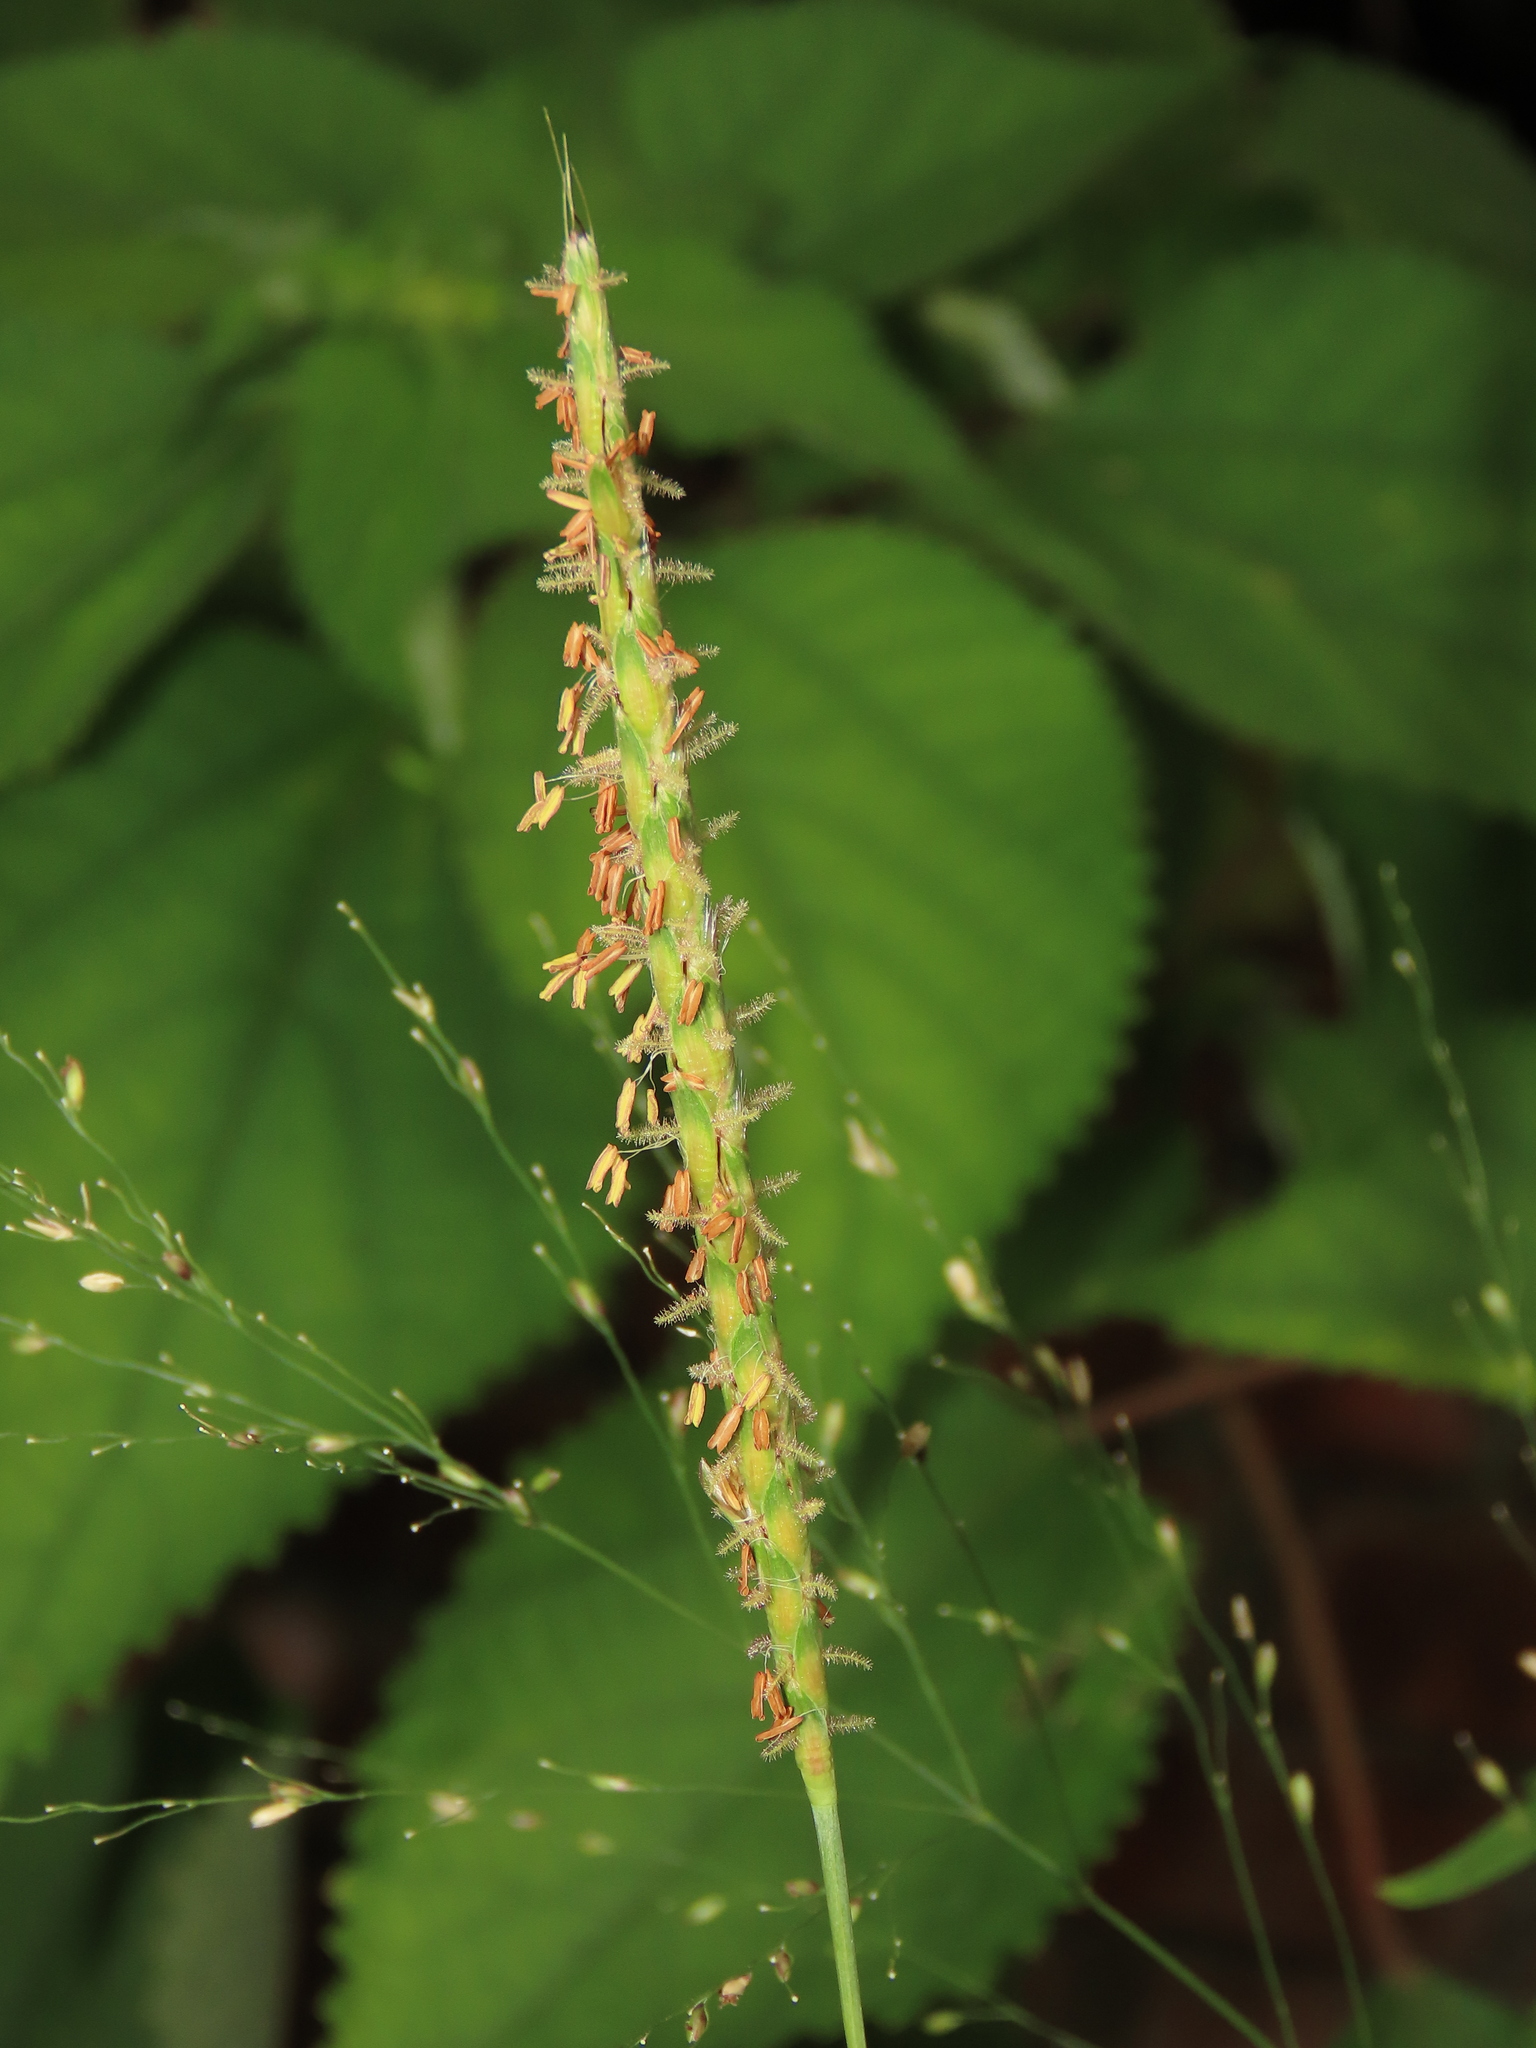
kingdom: Plantae
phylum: Tracheophyta
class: Liliopsida
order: Poales
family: Poaceae
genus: Ischaemum
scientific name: Ischaemum barbatum
